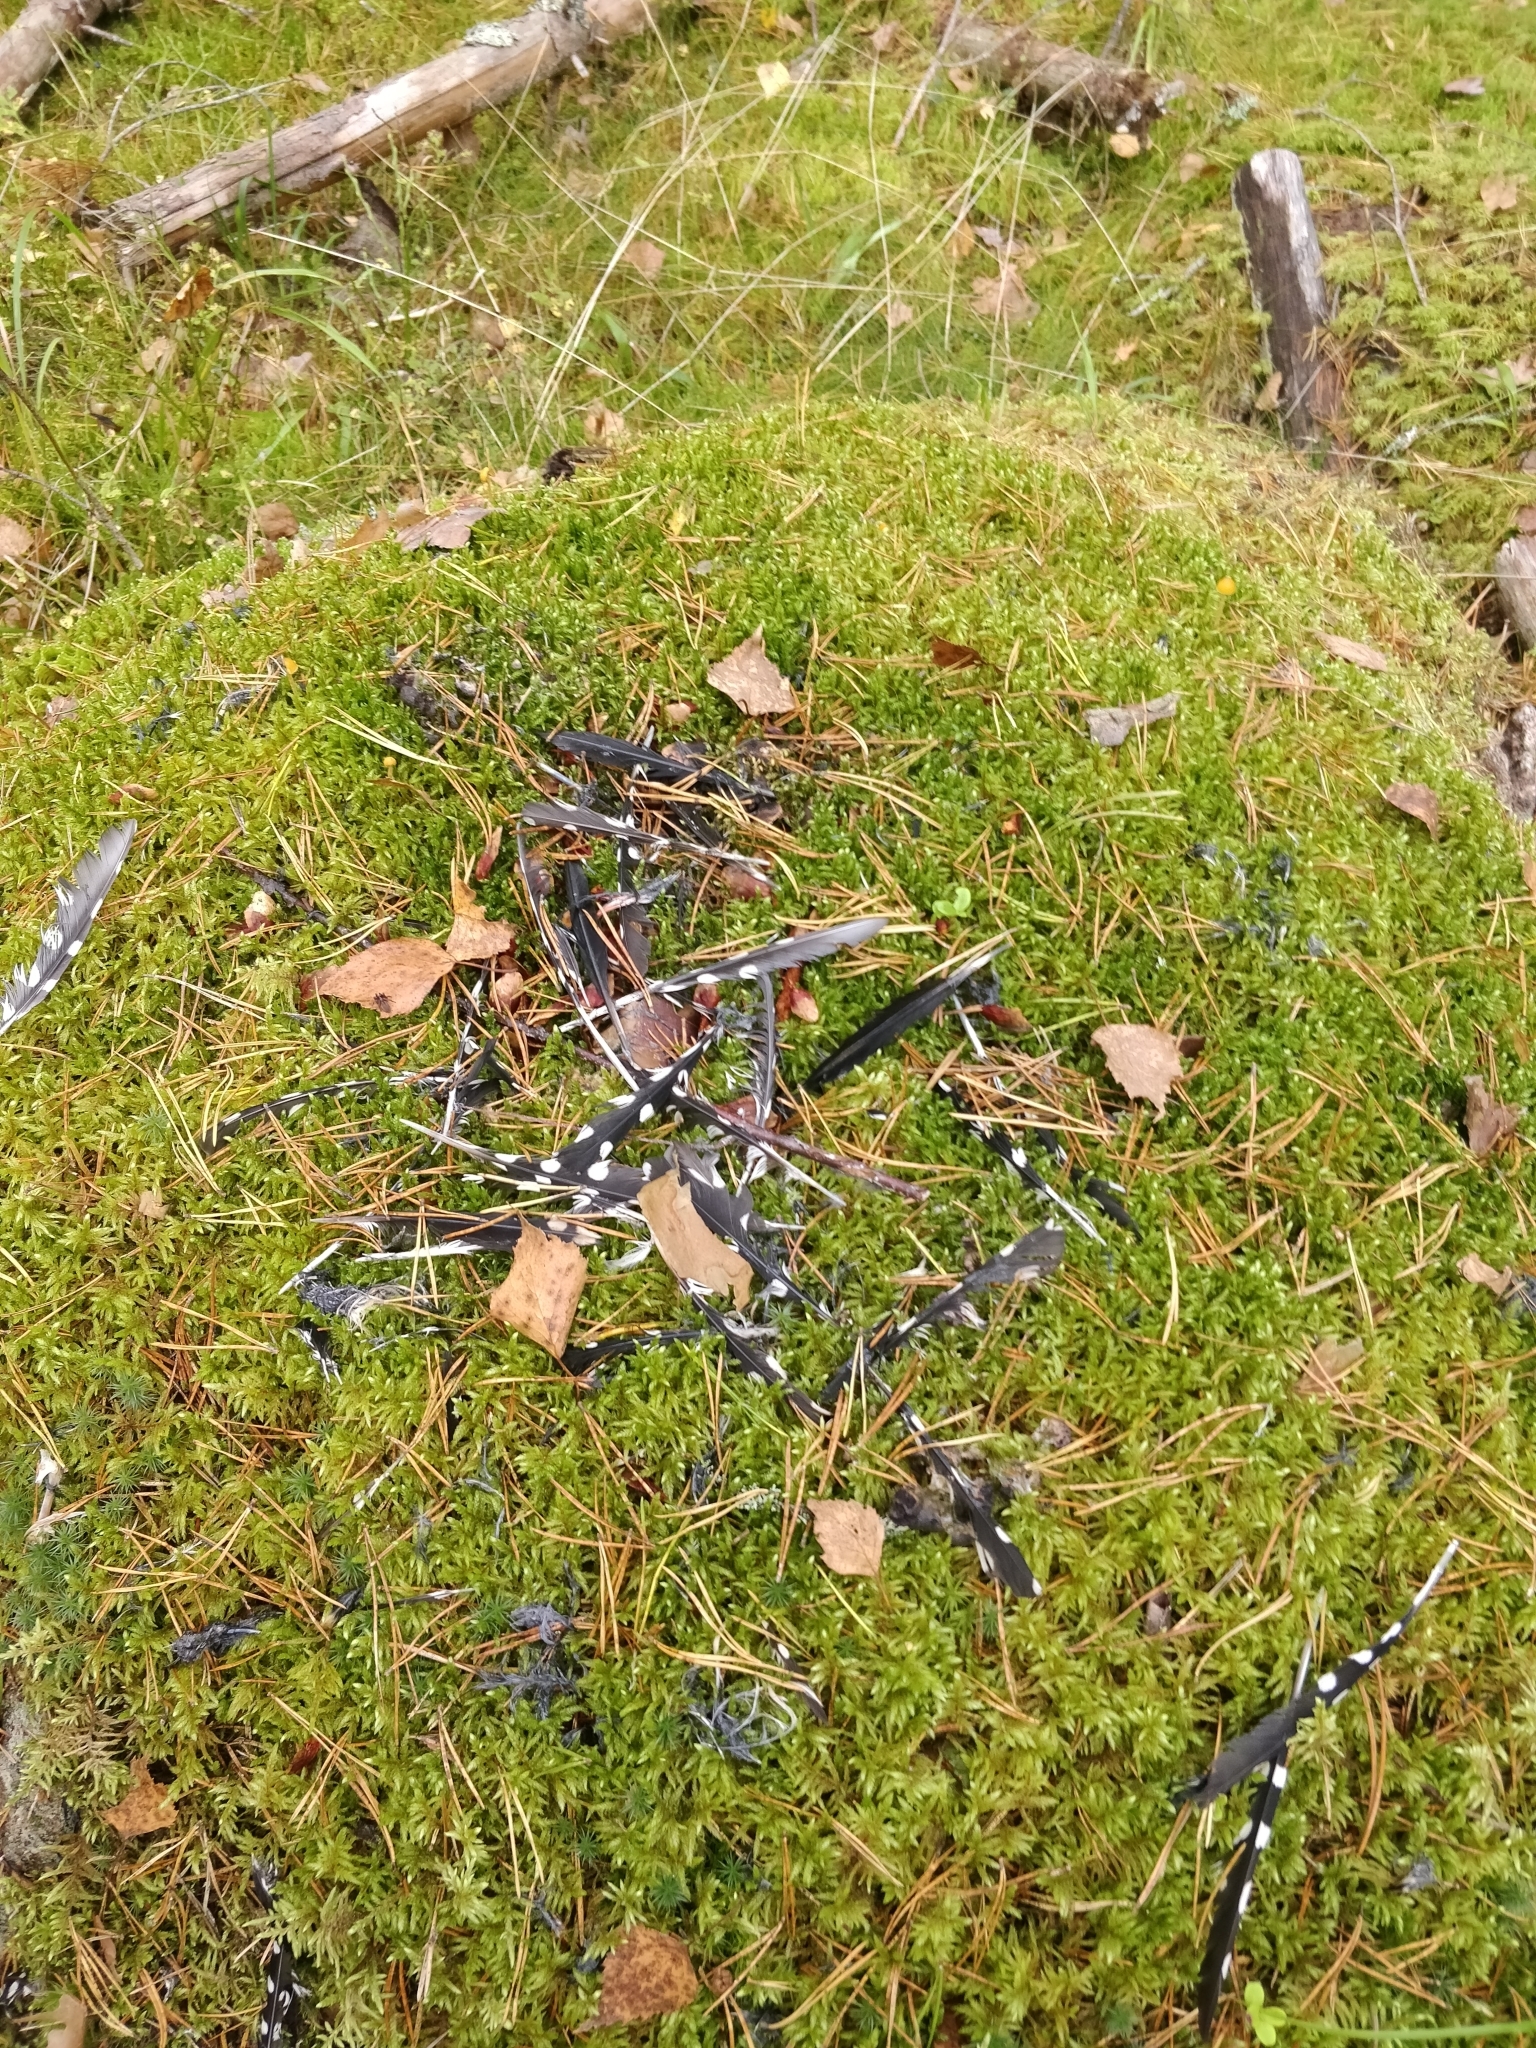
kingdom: Animalia
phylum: Chordata
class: Aves
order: Piciformes
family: Picidae
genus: Dendrocopos
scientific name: Dendrocopos major
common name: Great spotted woodpecker
